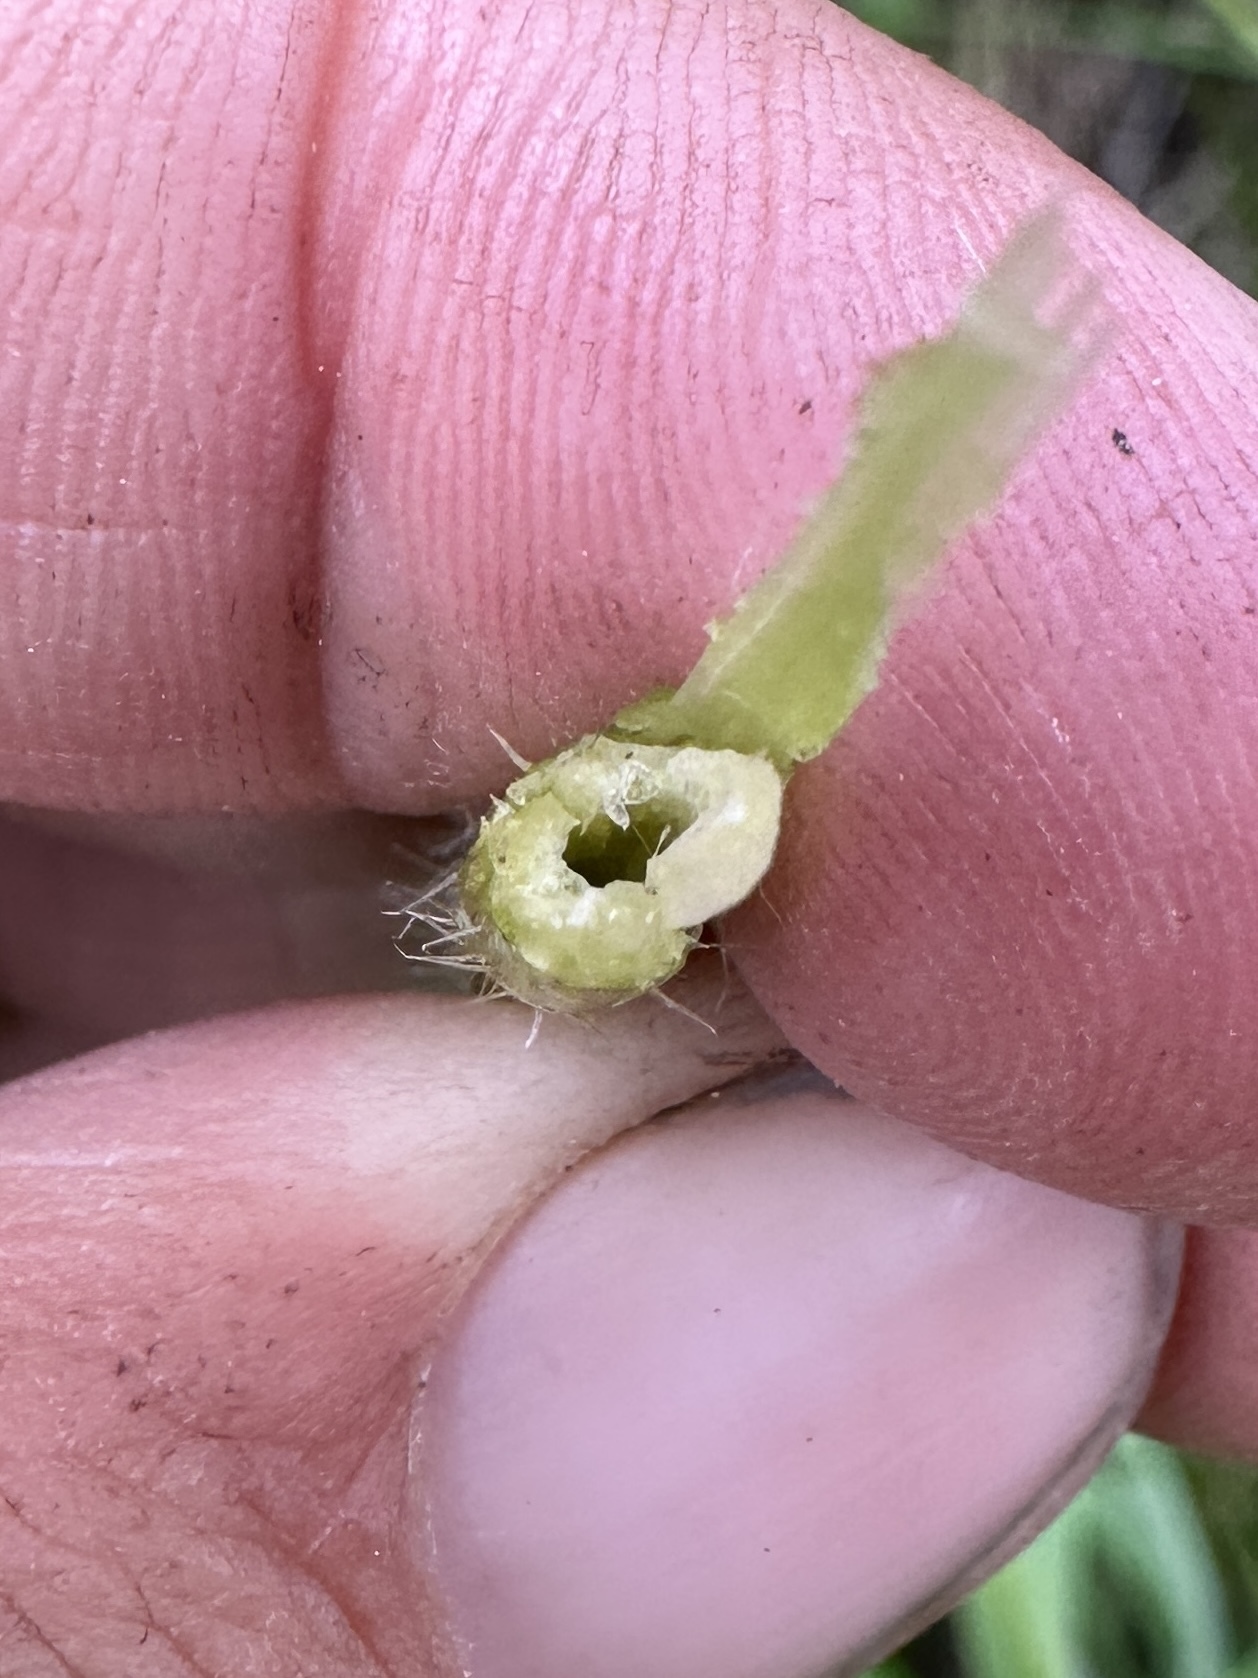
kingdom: Plantae
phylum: Tracheophyta
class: Magnoliopsida
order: Malvales
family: Malvaceae
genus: Sidalcea
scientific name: Sidalcea gigantea
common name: Giant checkerbloom
